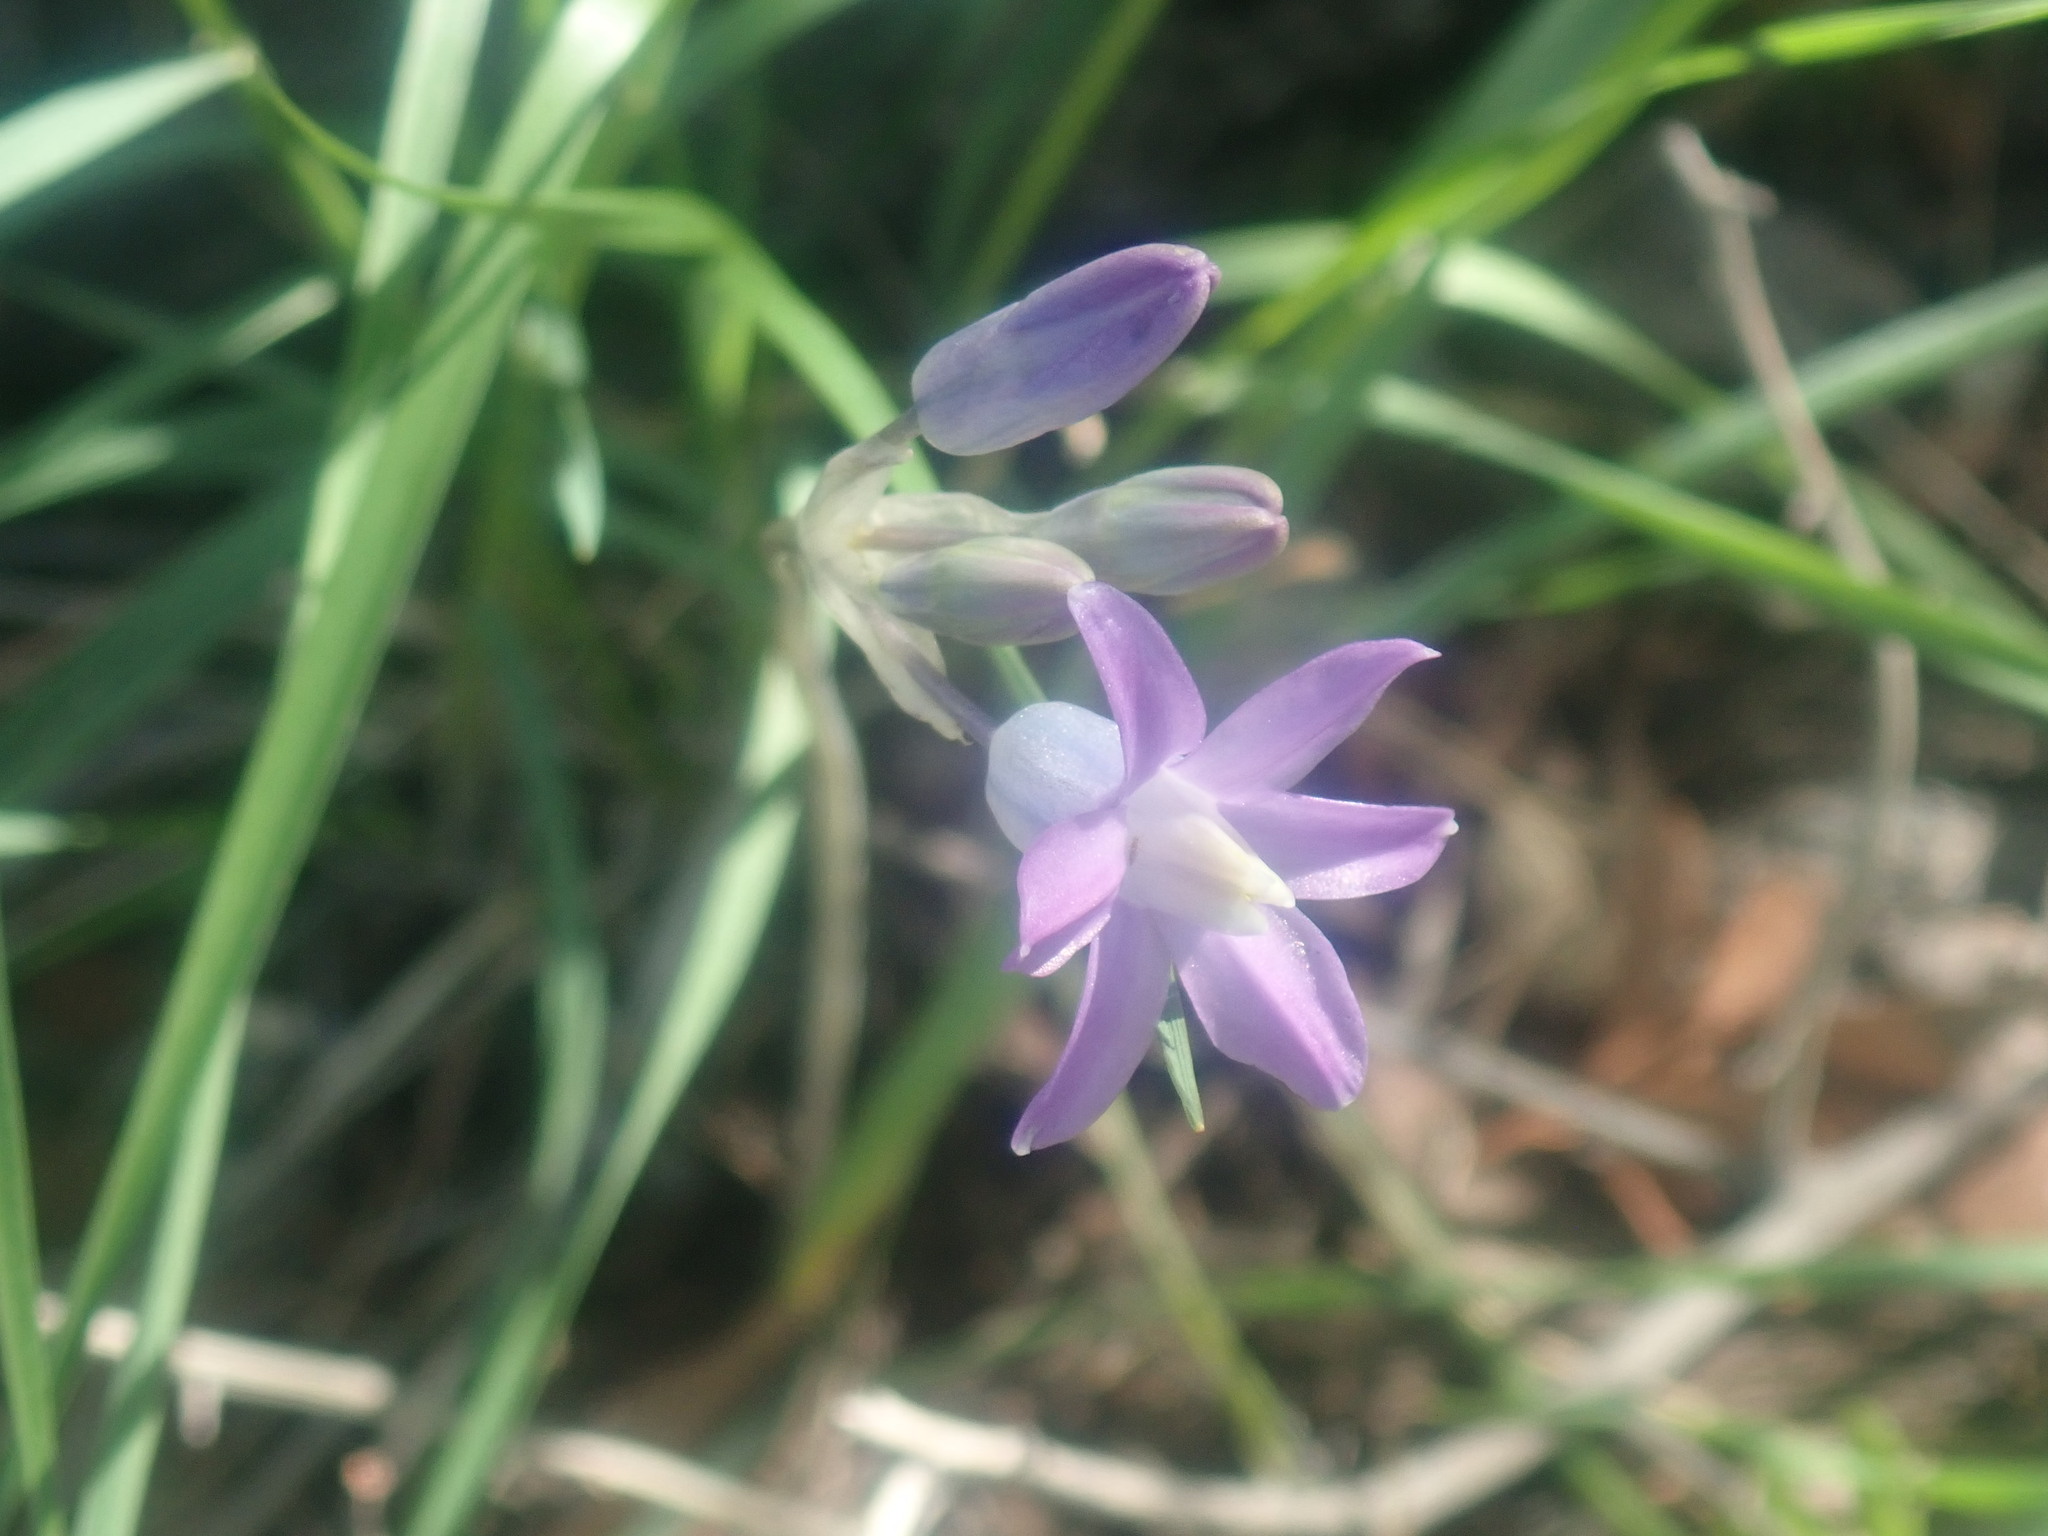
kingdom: Plantae
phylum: Tracheophyta
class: Liliopsida
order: Asparagales
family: Asparagaceae
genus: Dipterostemon
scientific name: Dipterostemon capitatus
